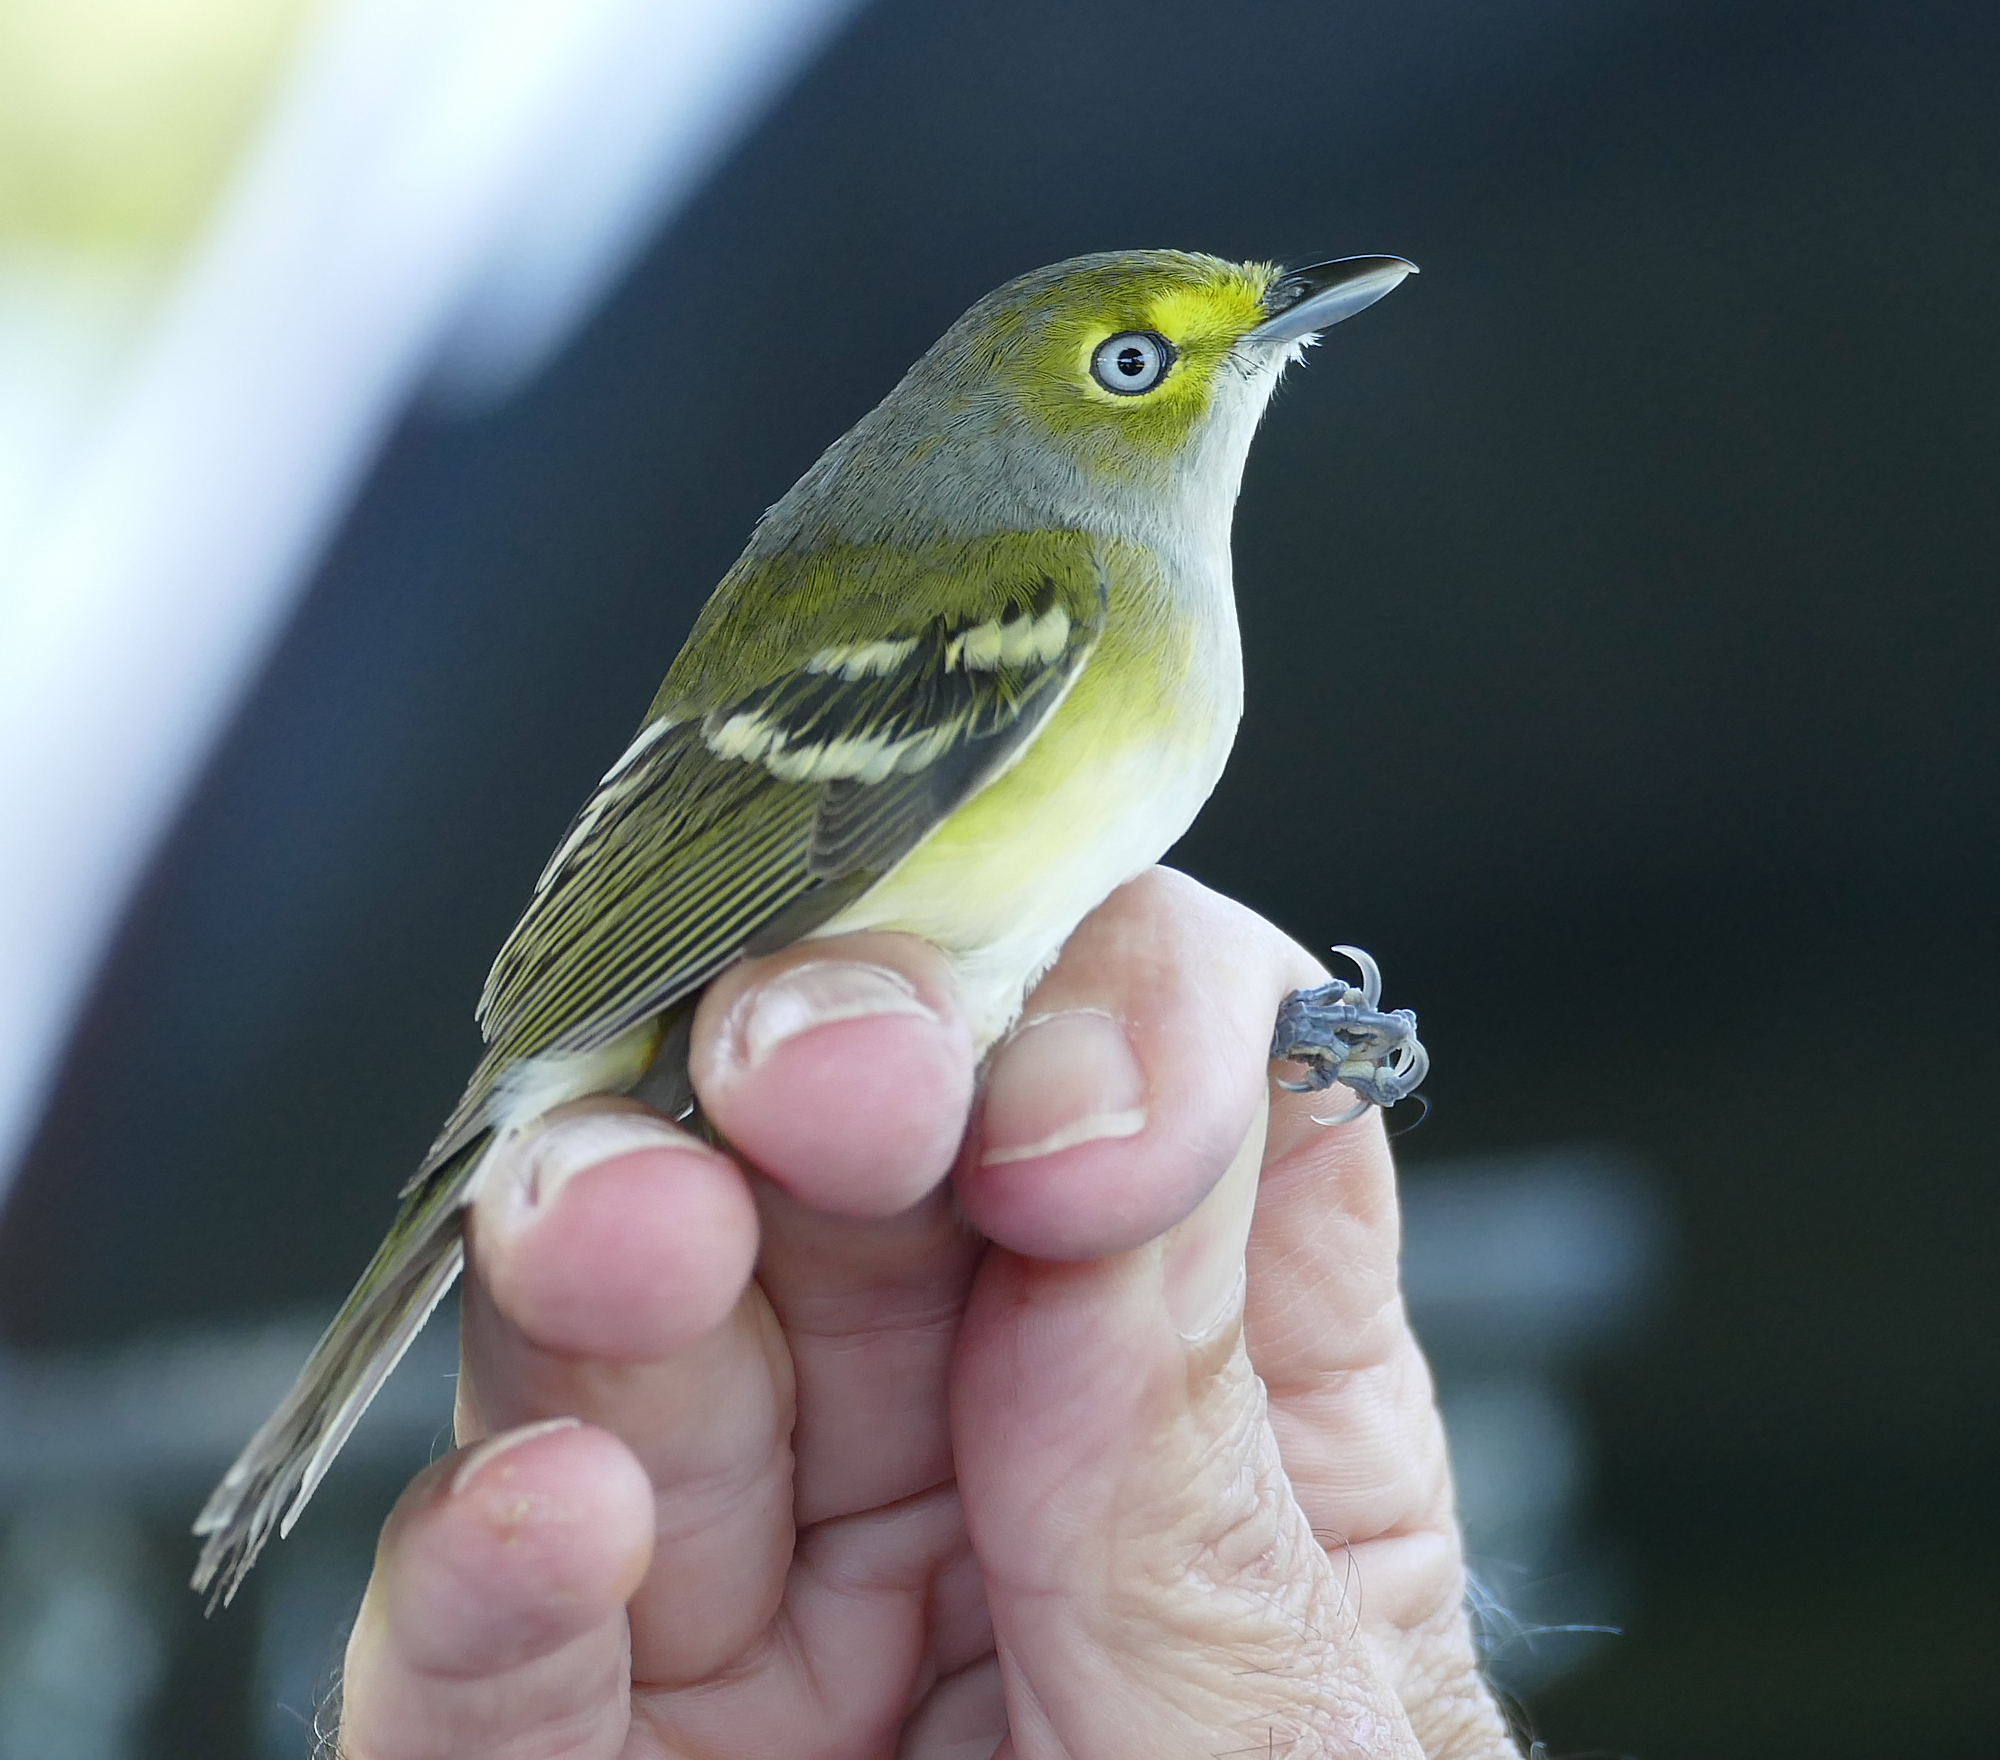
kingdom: Animalia
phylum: Chordata
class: Aves
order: Passeriformes
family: Vireonidae
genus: Vireo
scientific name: Vireo griseus
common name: White-eyed vireo
